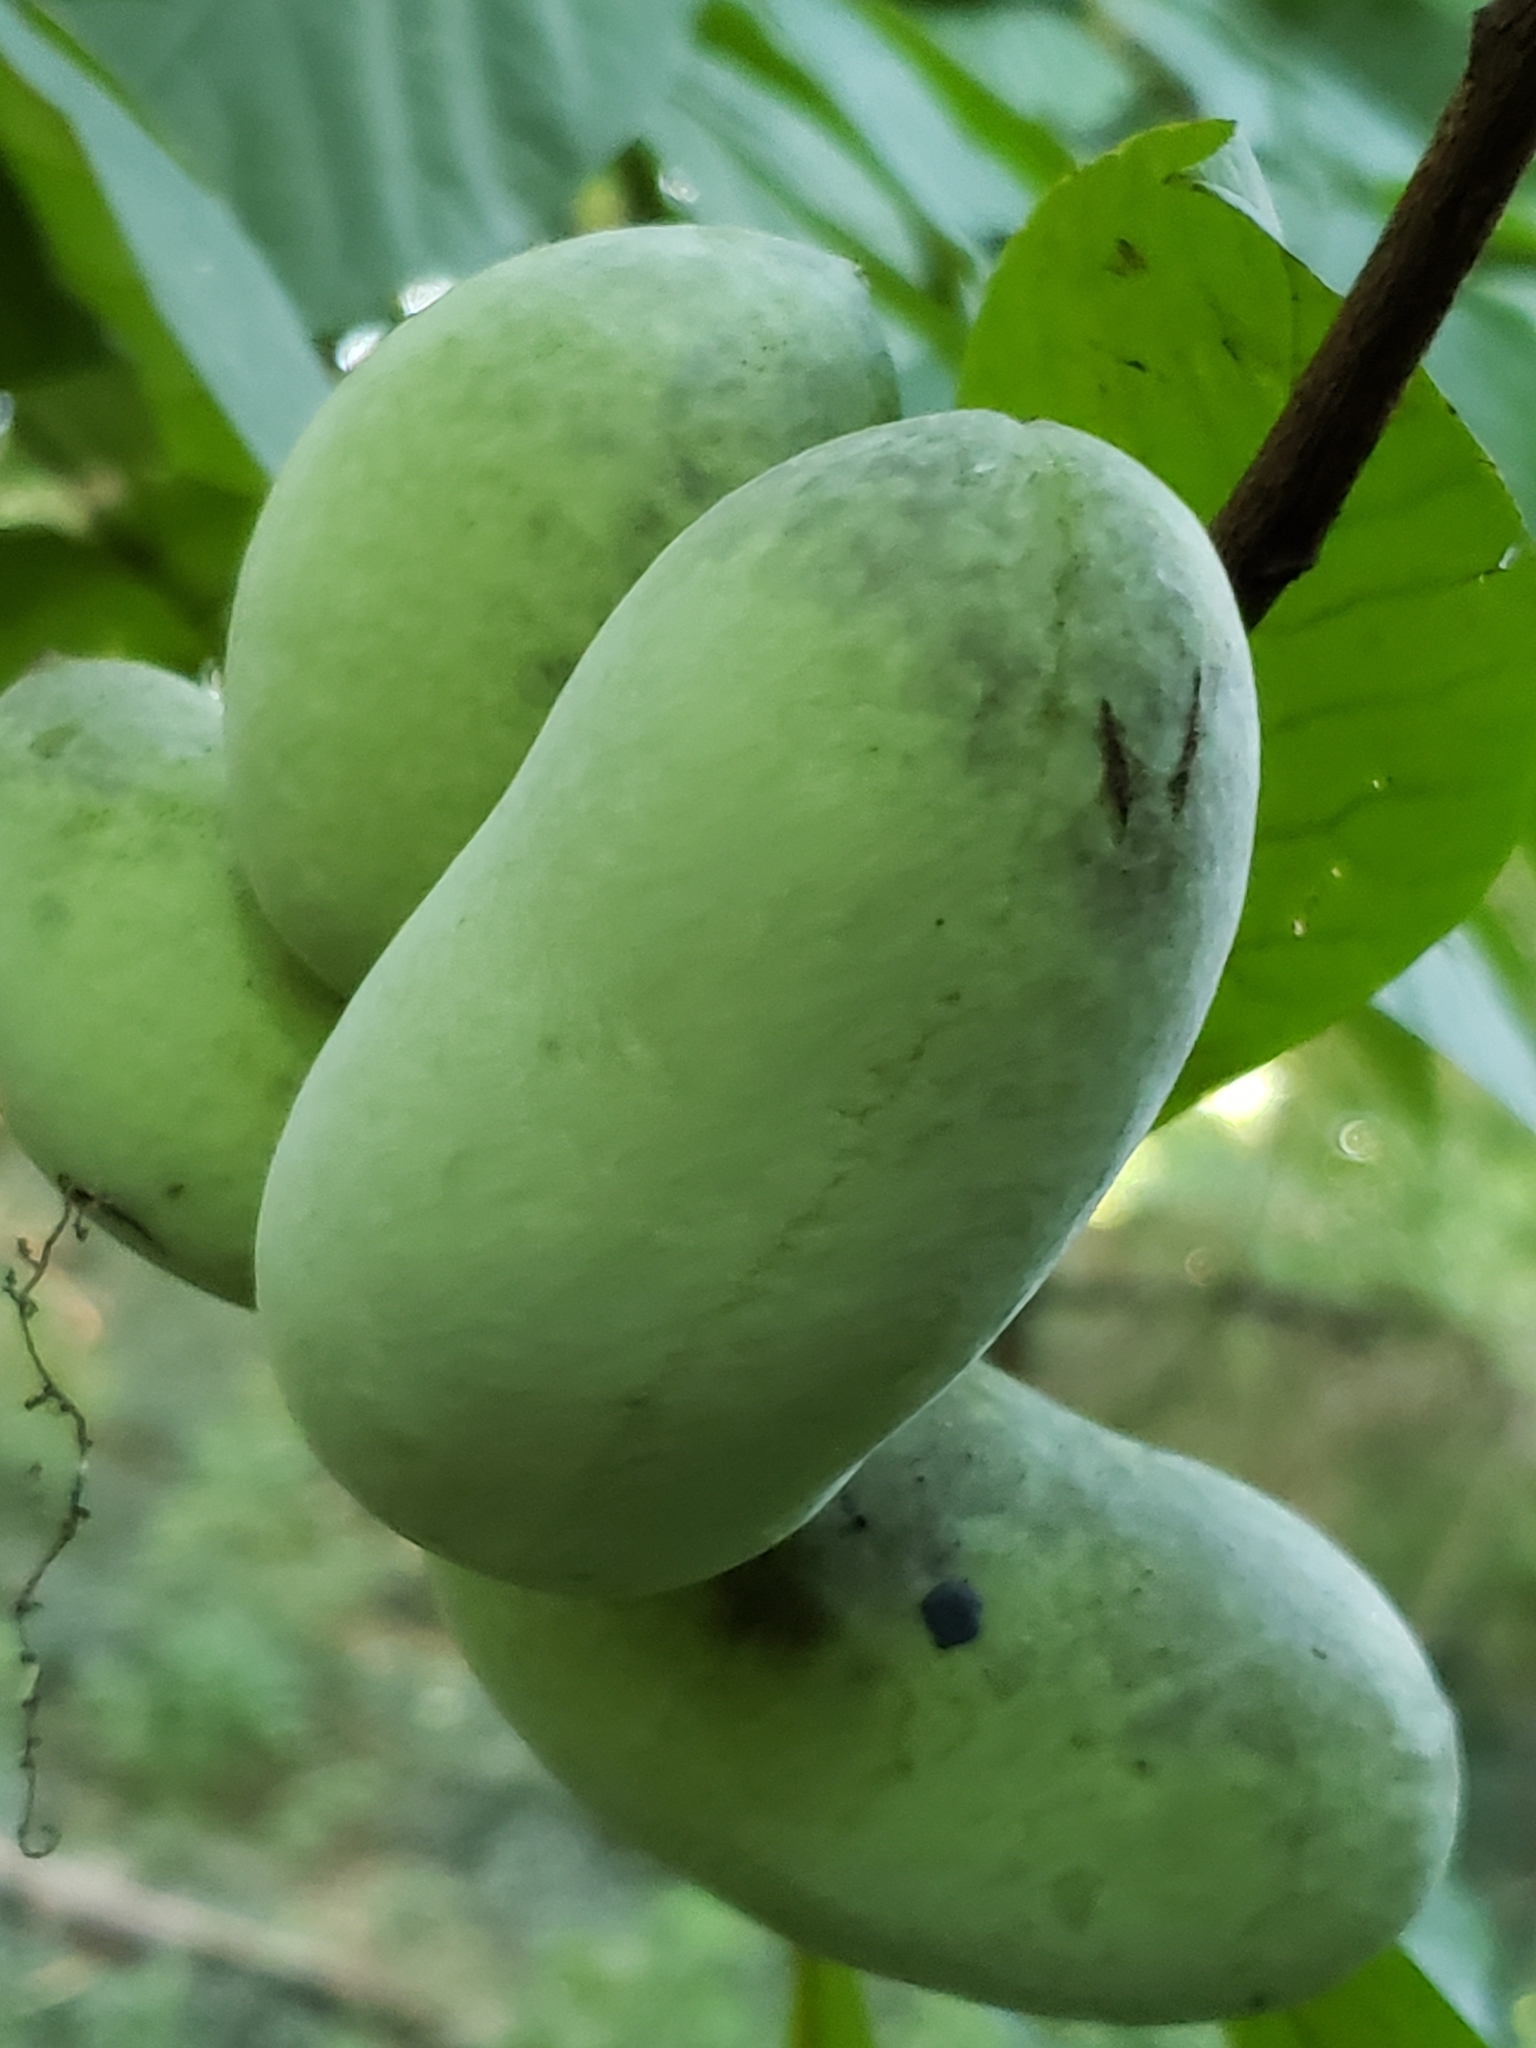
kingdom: Plantae
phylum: Tracheophyta
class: Magnoliopsida
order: Magnoliales
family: Annonaceae
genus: Asimina
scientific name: Asimina triloba
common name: Dog-banana
